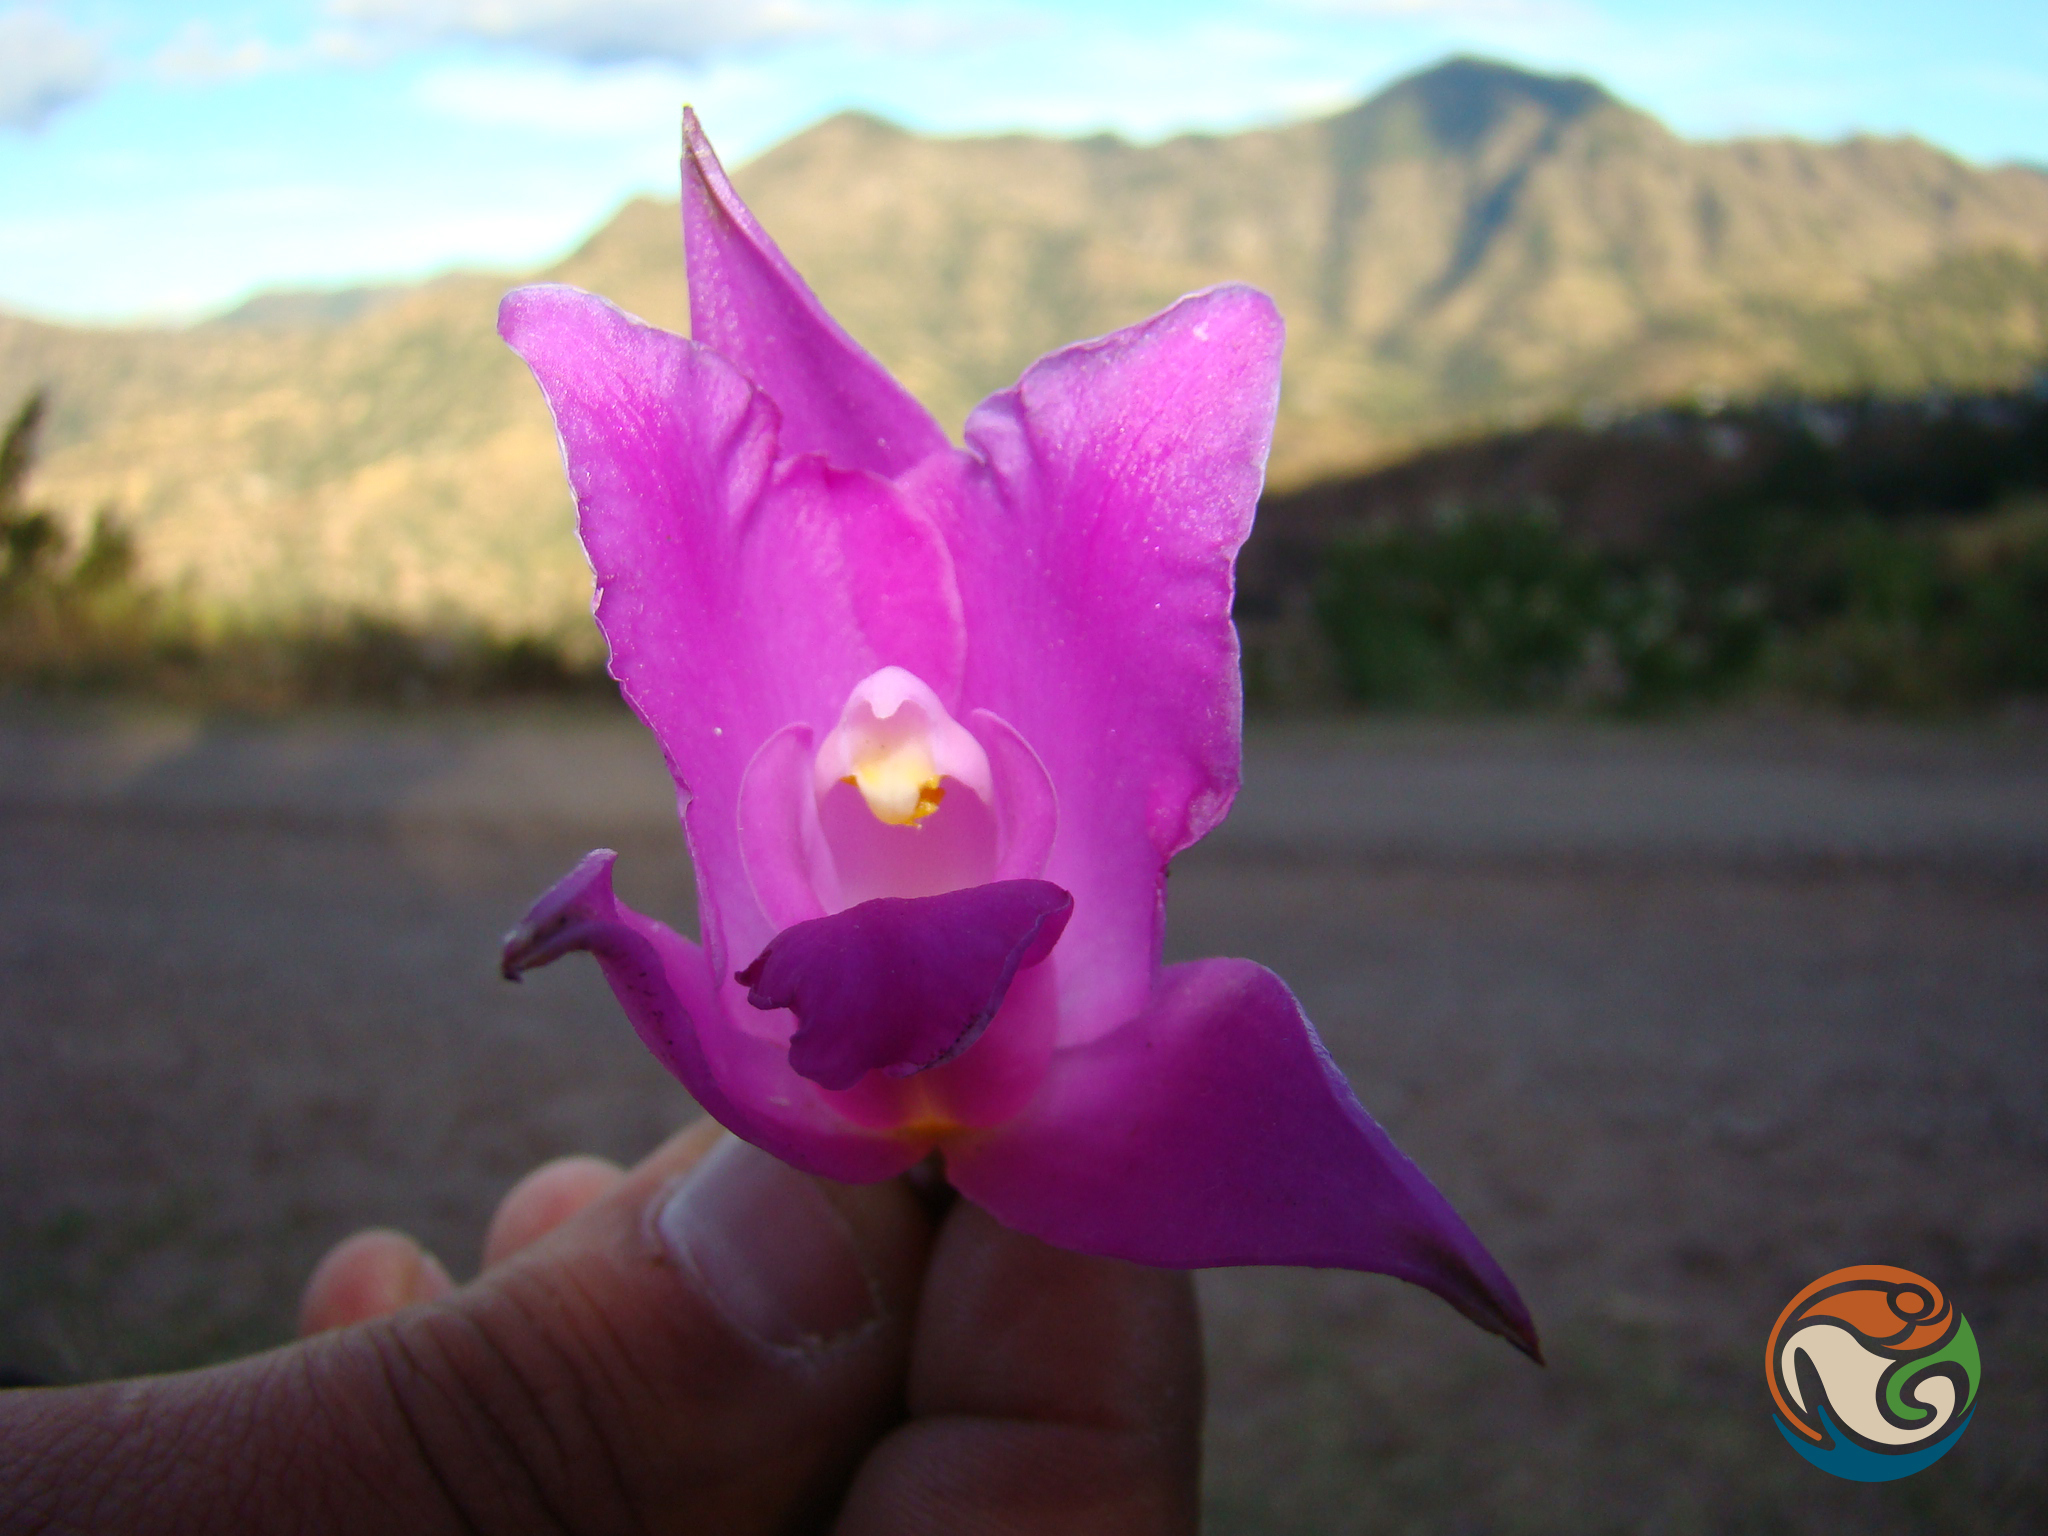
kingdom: Plantae
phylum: Tracheophyta
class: Liliopsida
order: Asparagales
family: Orchidaceae
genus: Laelia
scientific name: Laelia furfuracea
